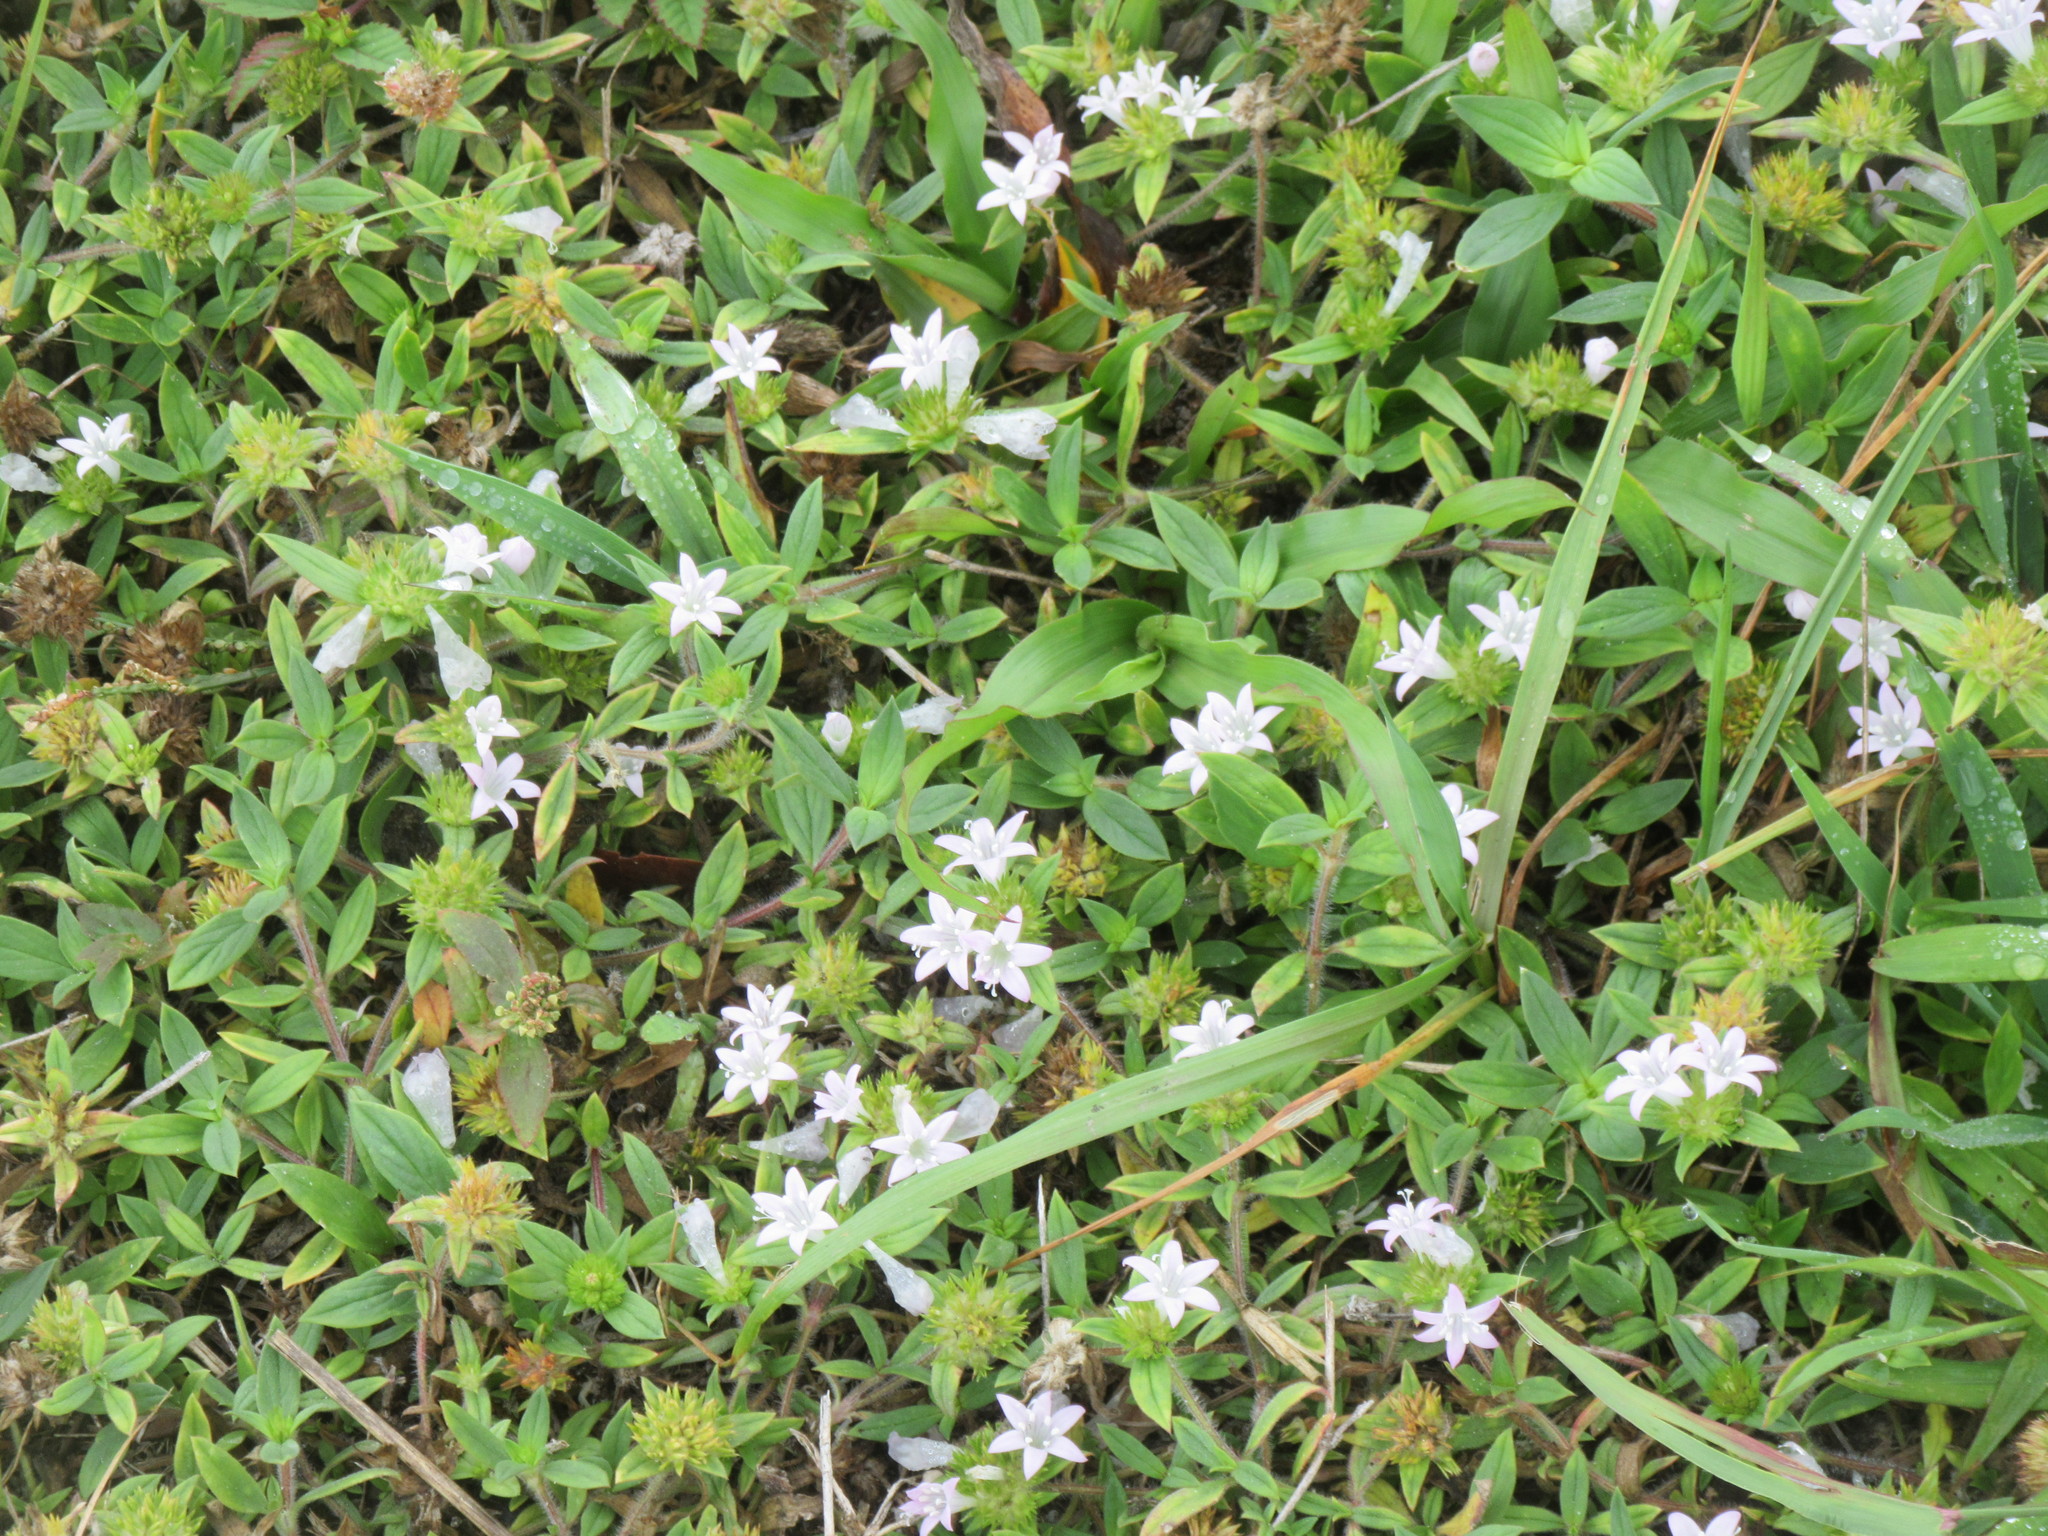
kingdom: Plantae
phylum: Tracheophyta
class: Magnoliopsida
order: Gentianales
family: Rubiaceae
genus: Richardia
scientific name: Richardia grandiflora
